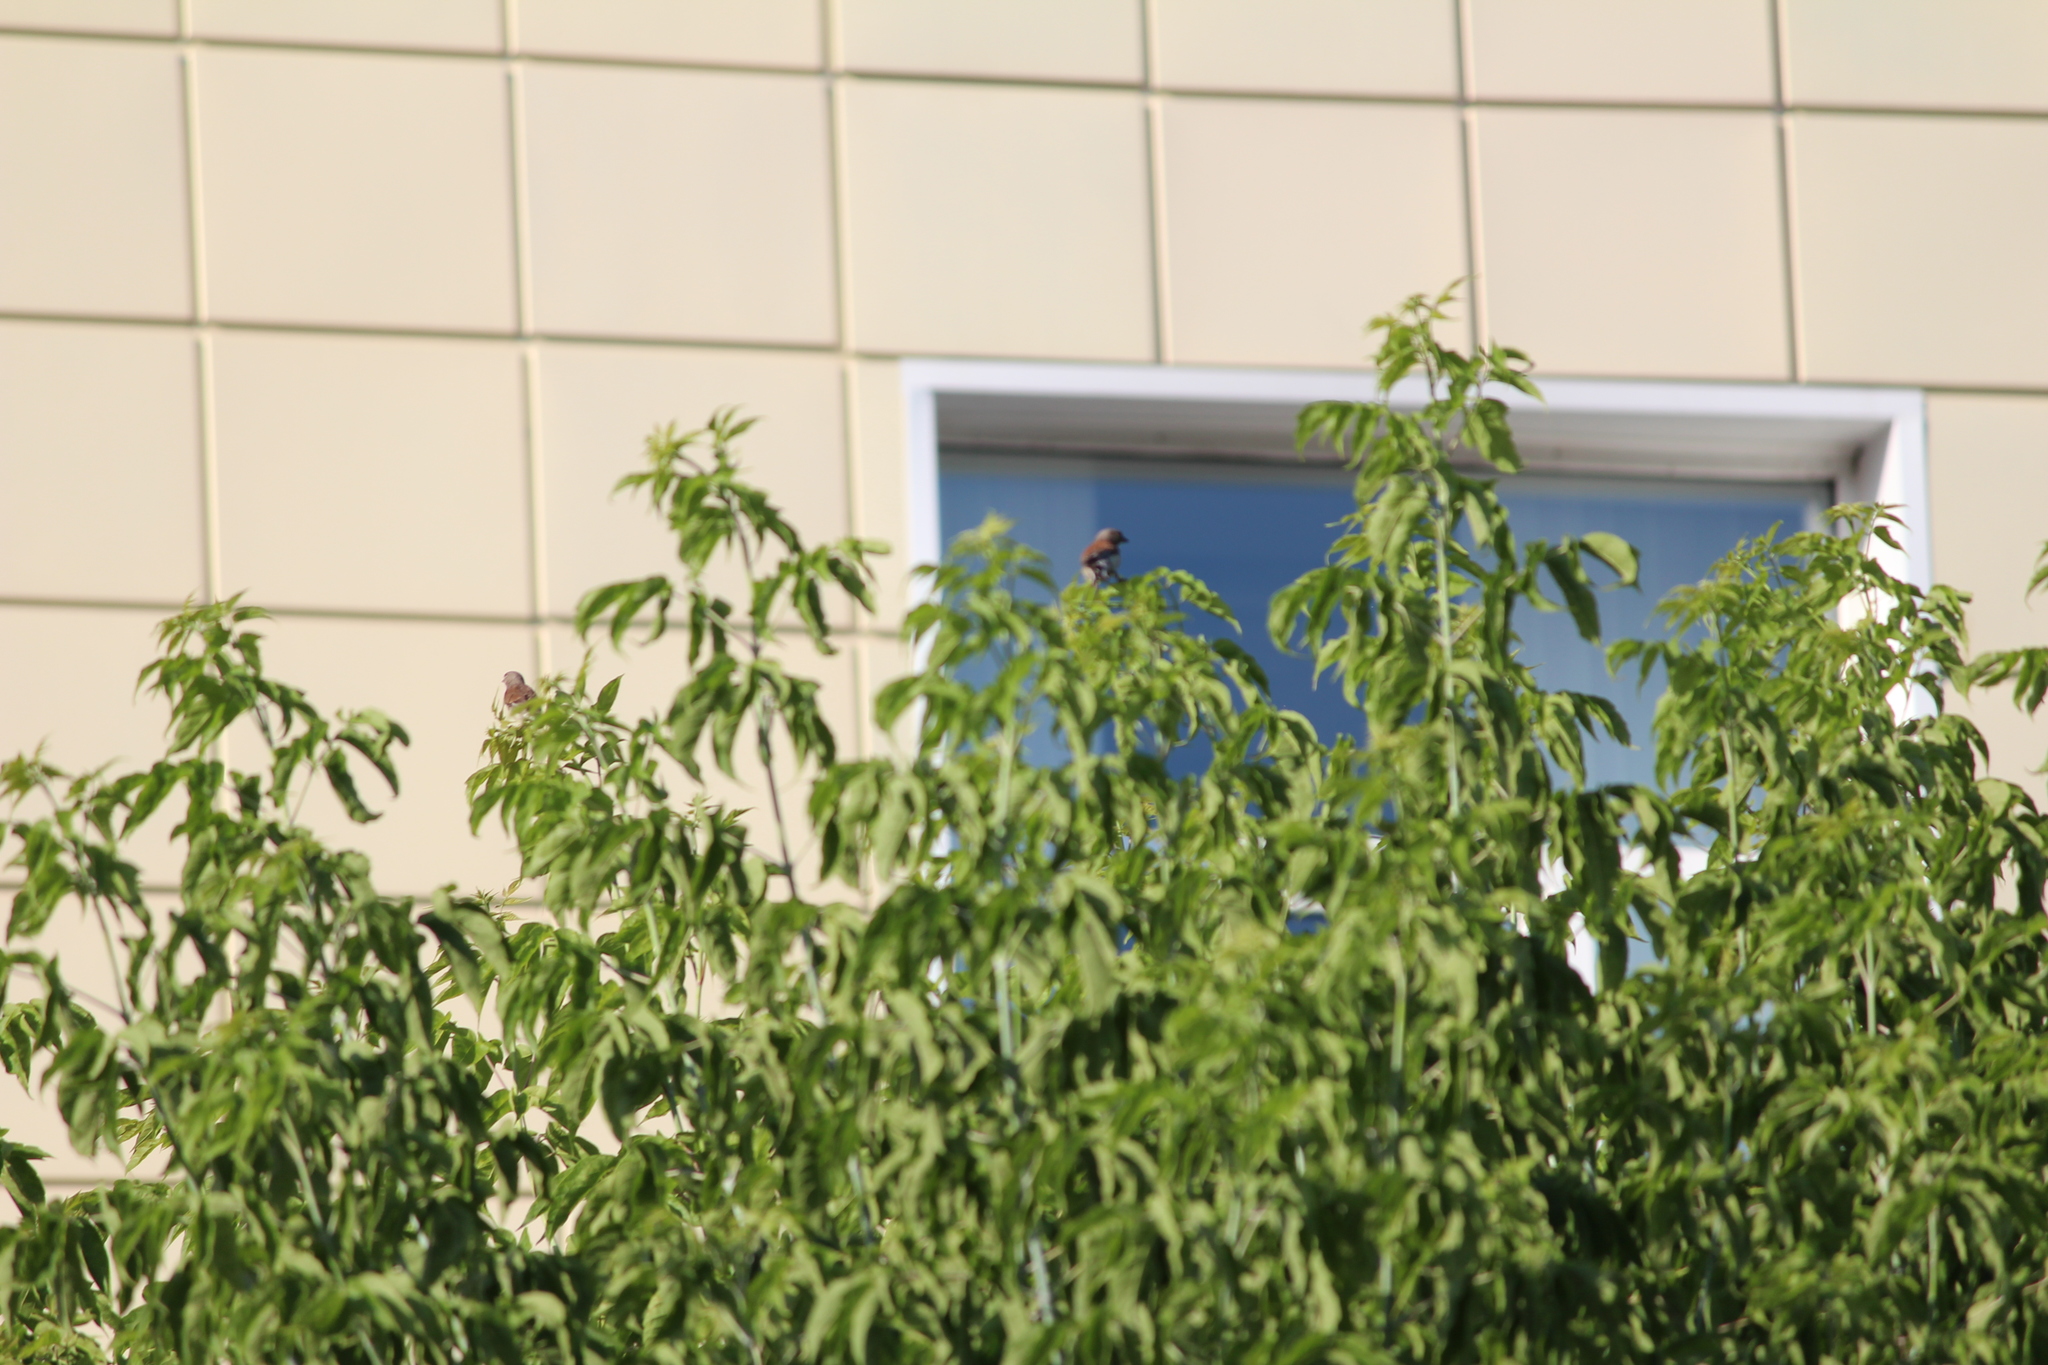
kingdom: Animalia
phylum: Chordata
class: Aves
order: Passeriformes
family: Fringillidae
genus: Linaria
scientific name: Linaria cannabina
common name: Common linnet
